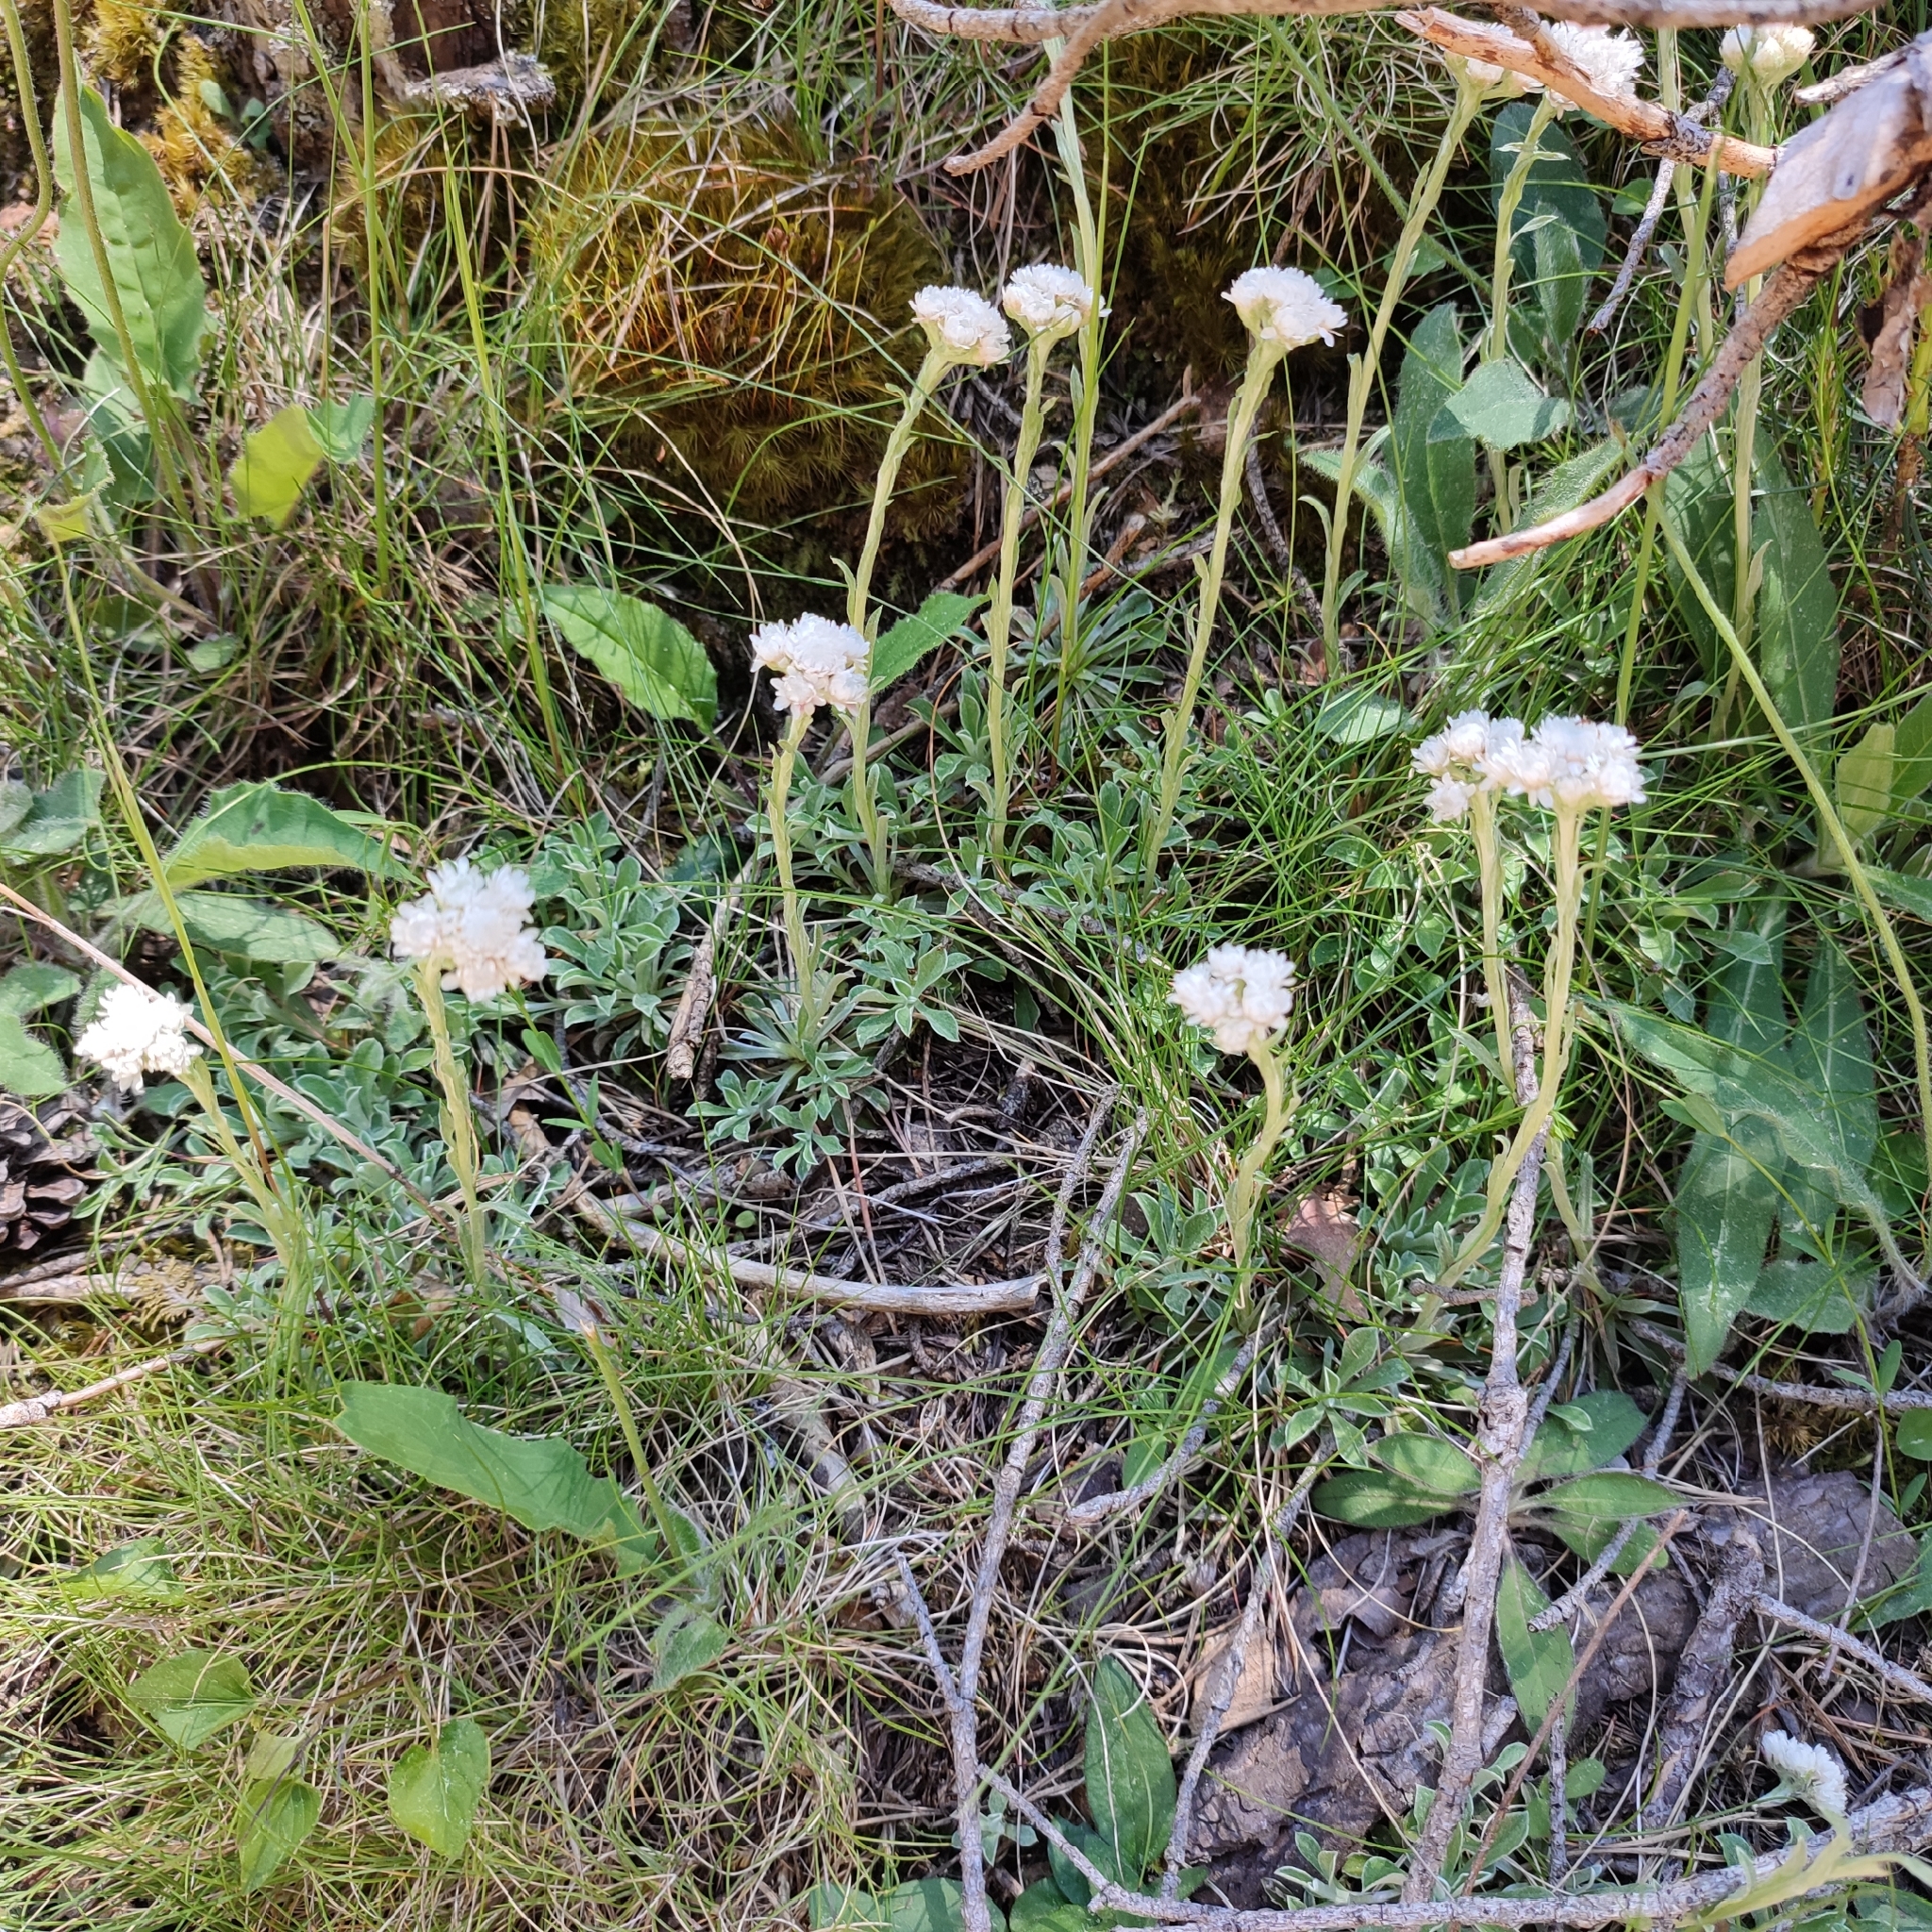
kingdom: Plantae
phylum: Tracheophyta
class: Magnoliopsida
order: Asterales
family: Asteraceae
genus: Antennaria
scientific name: Antennaria dioica
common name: Mountain everlasting
